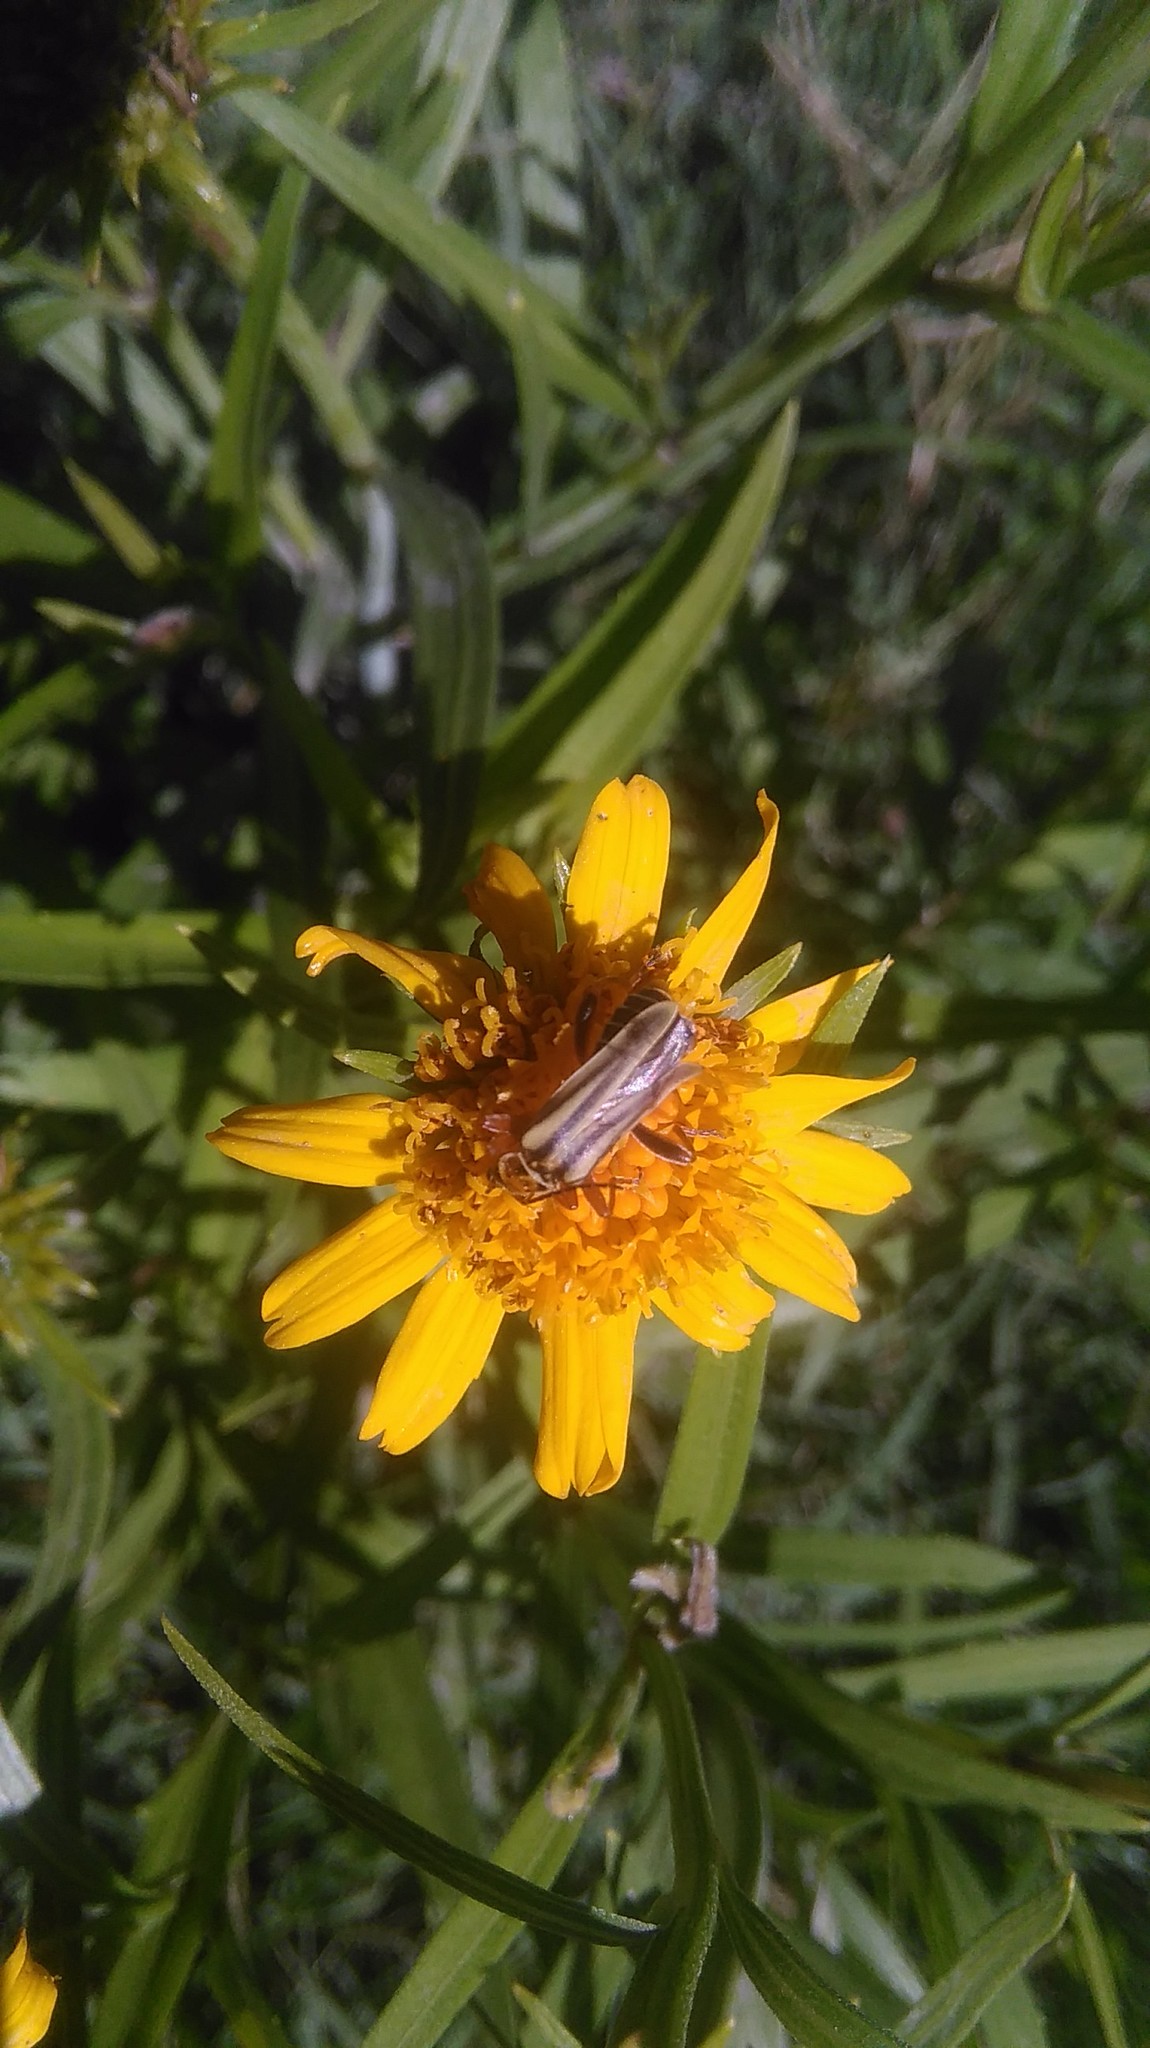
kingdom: Animalia
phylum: Arthropoda
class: Insecta
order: Coleoptera
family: Cantharidae
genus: Chauliognathus
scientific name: Chauliognathus
